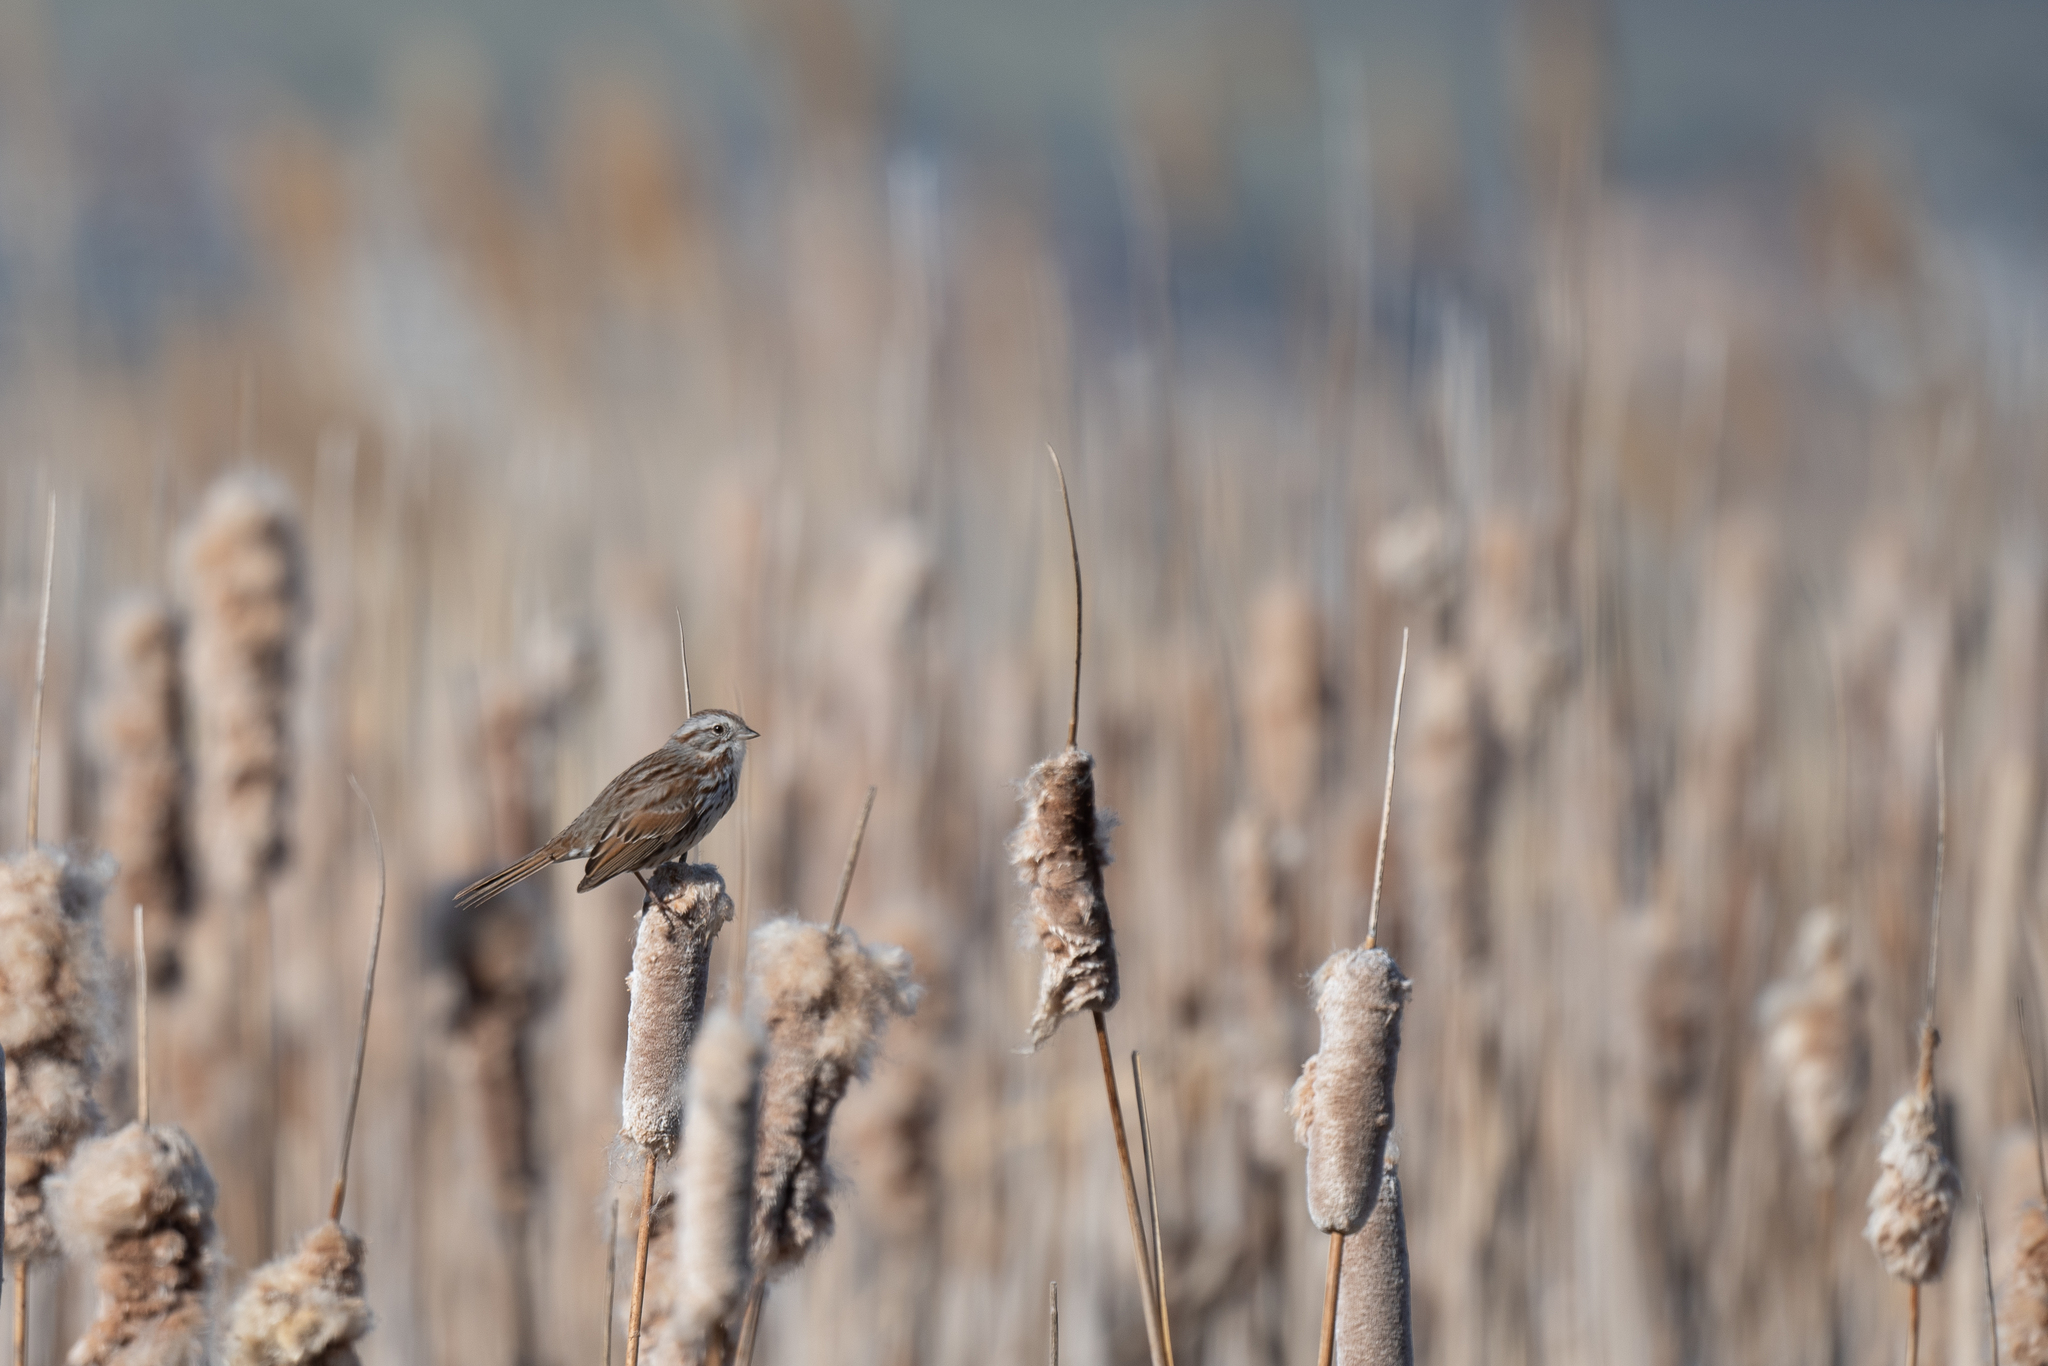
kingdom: Animalia
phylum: Chordata
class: Aves
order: Passeriformes
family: Passerellidae
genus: Melospiza
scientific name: Melospiza melodia
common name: Song sparrow
